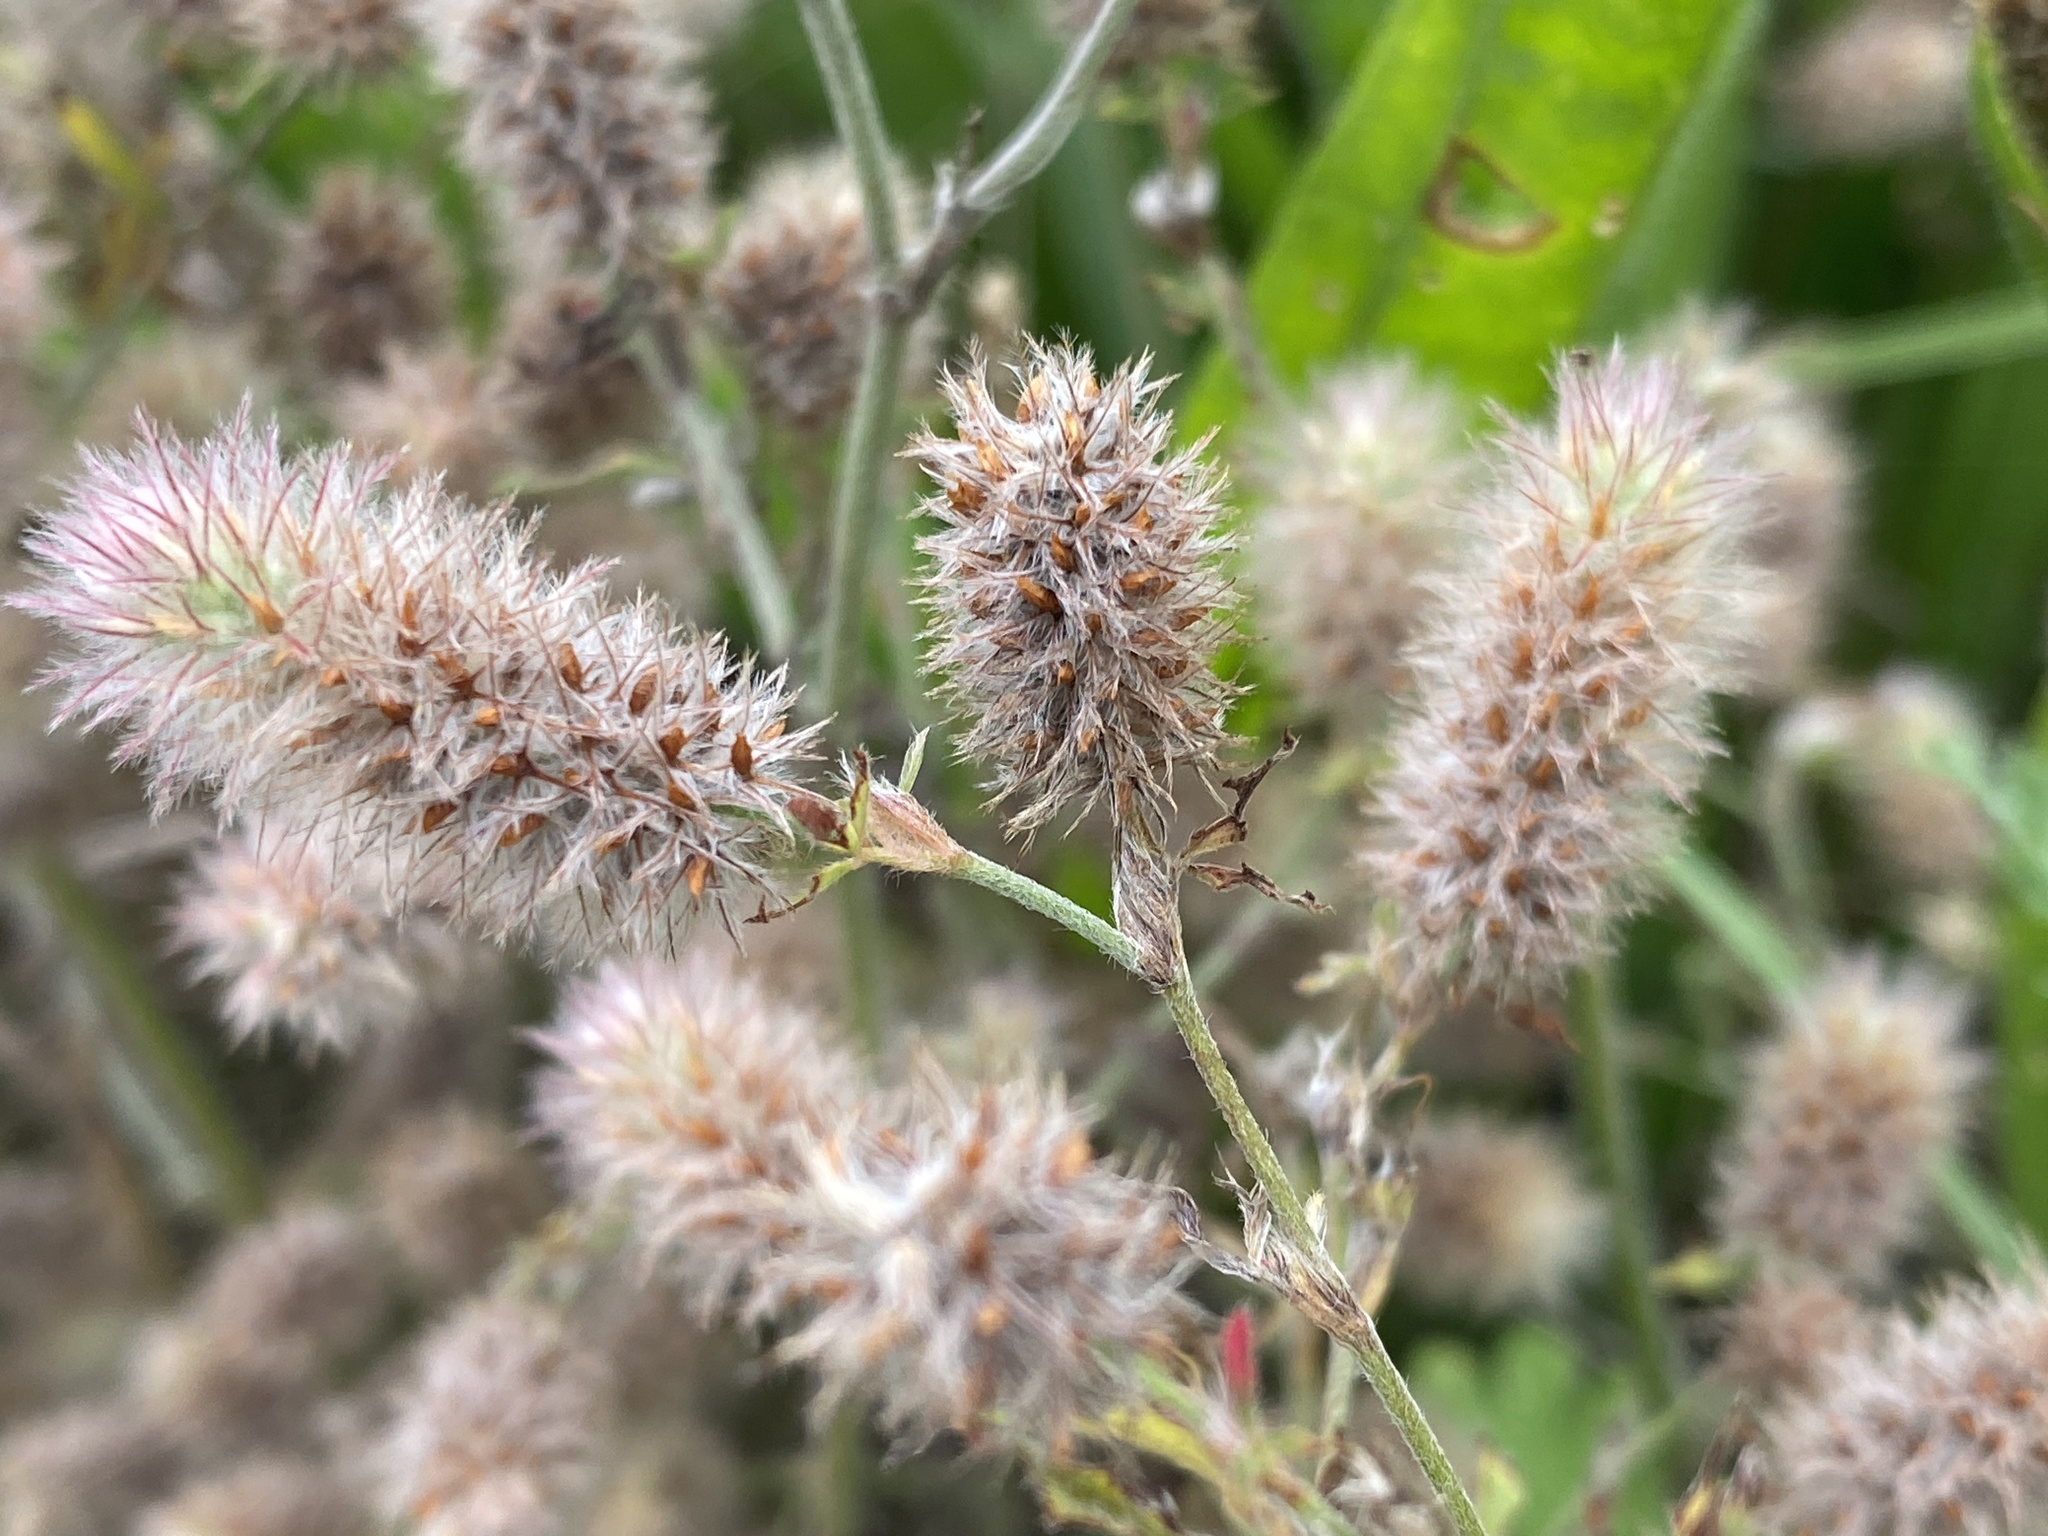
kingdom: Plantae
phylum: Tracheophyta
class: Magnoliopsida
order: Fabales
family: Fabaceae
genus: Trifolium
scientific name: Trifolium arvense
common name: Hare's-foot clover
